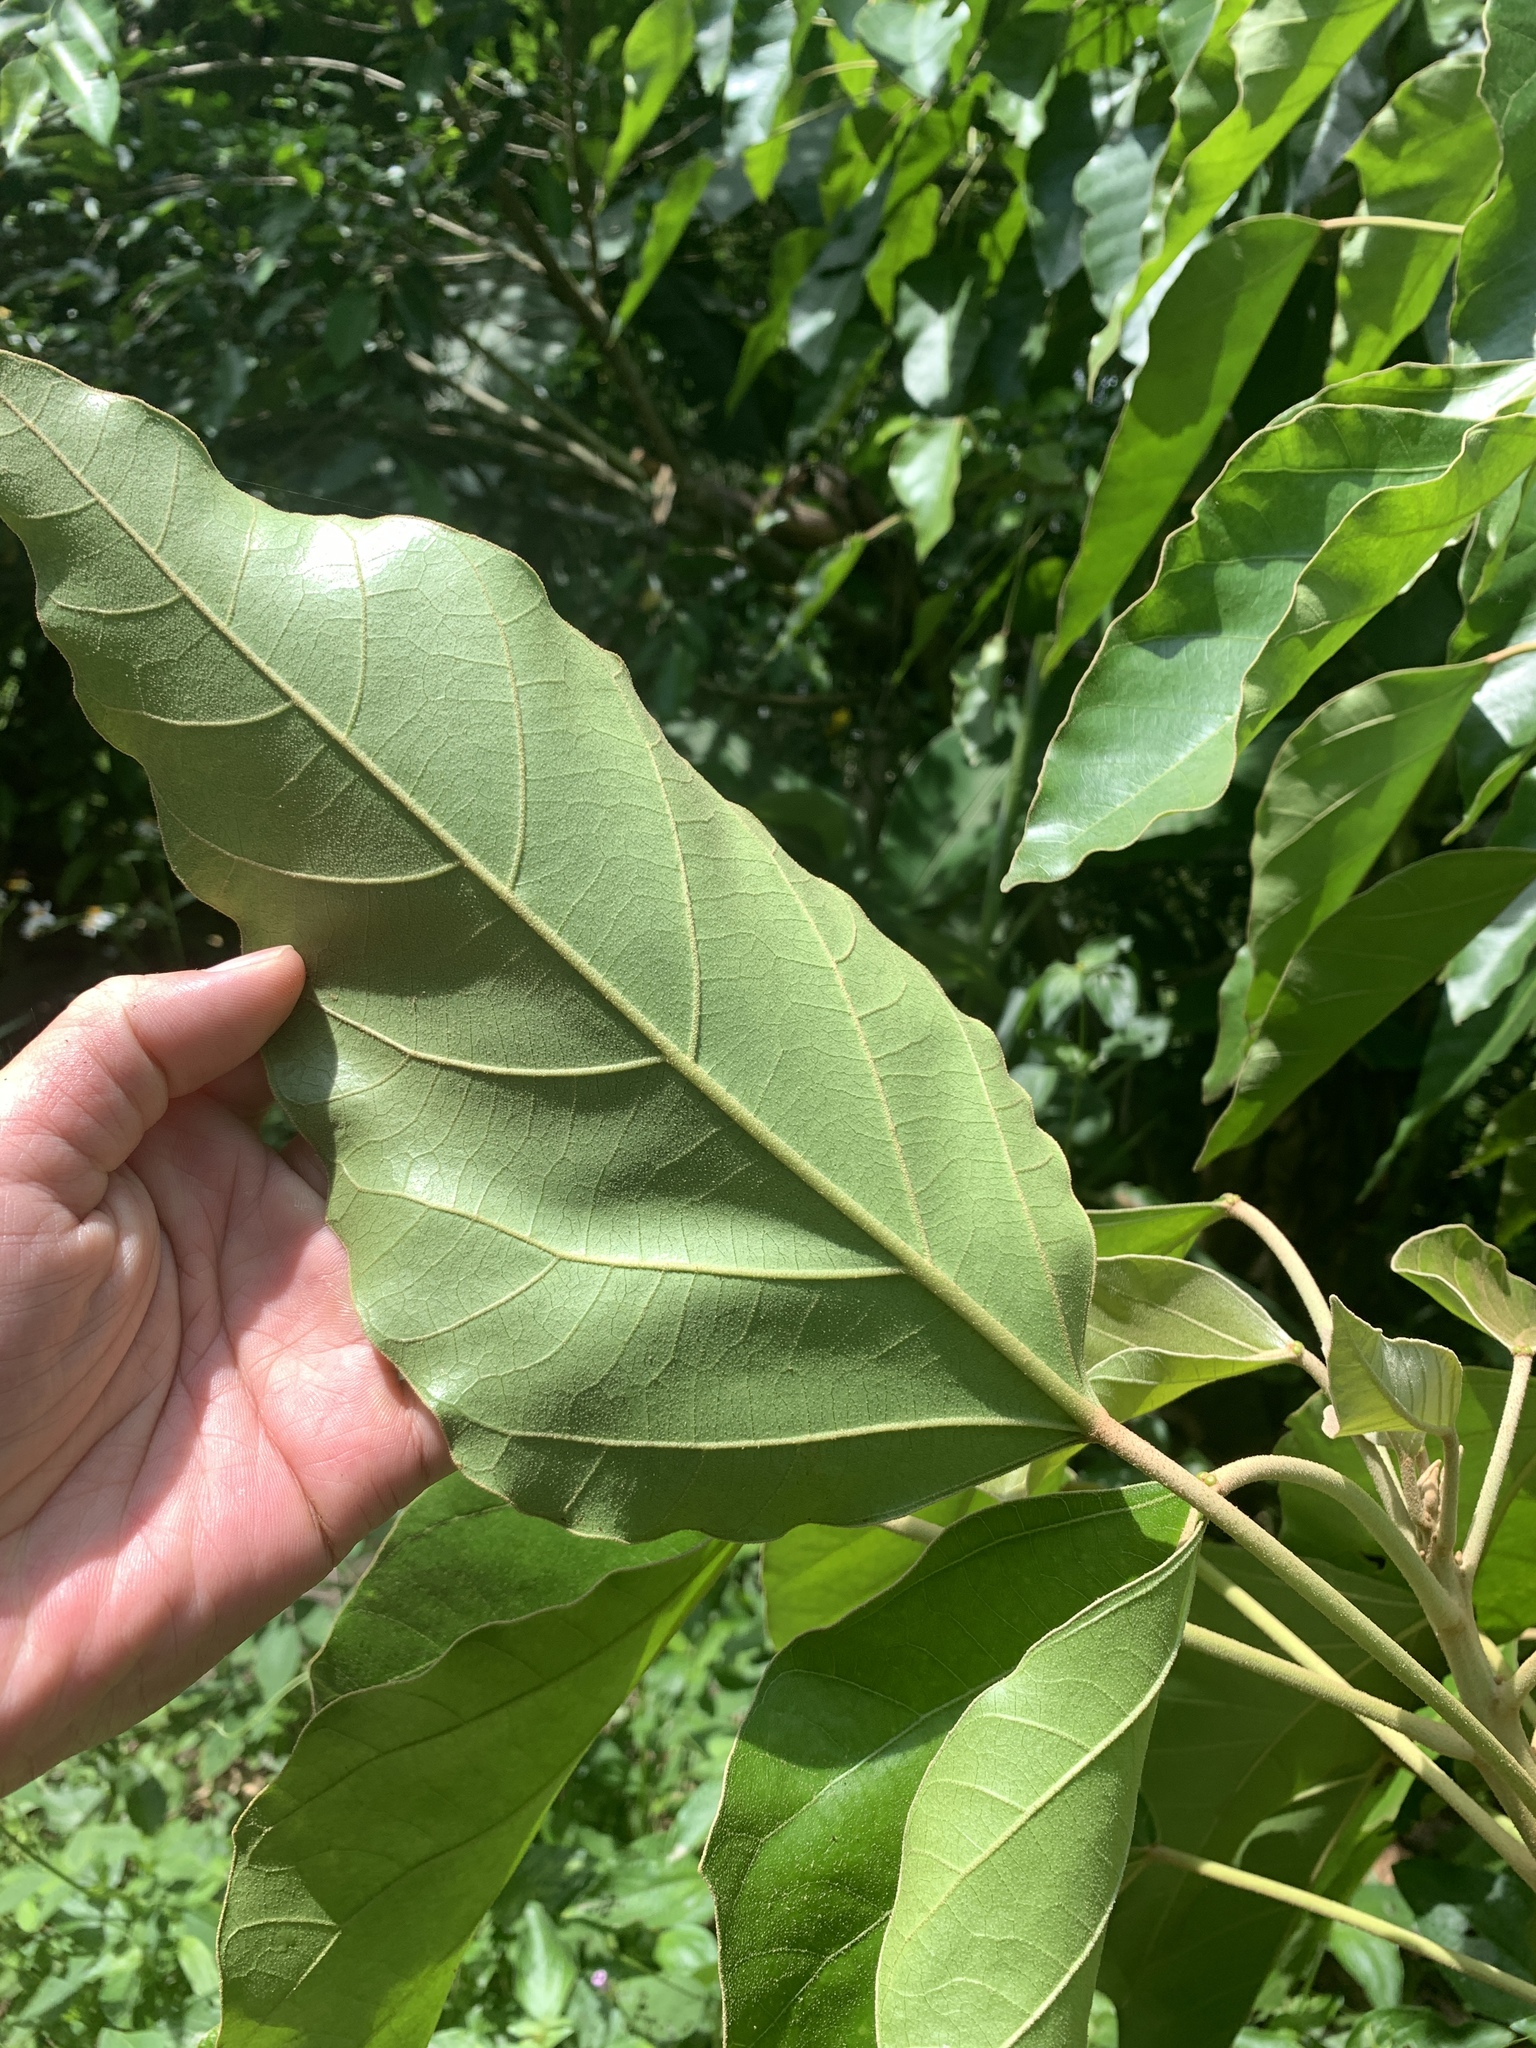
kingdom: Plantae
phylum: Tracheophyta
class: Magnoliopsida
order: Malpighiales
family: Euphorbiaceae
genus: Aleurites
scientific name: Aleurites moluccanus
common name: Candlenut tree
